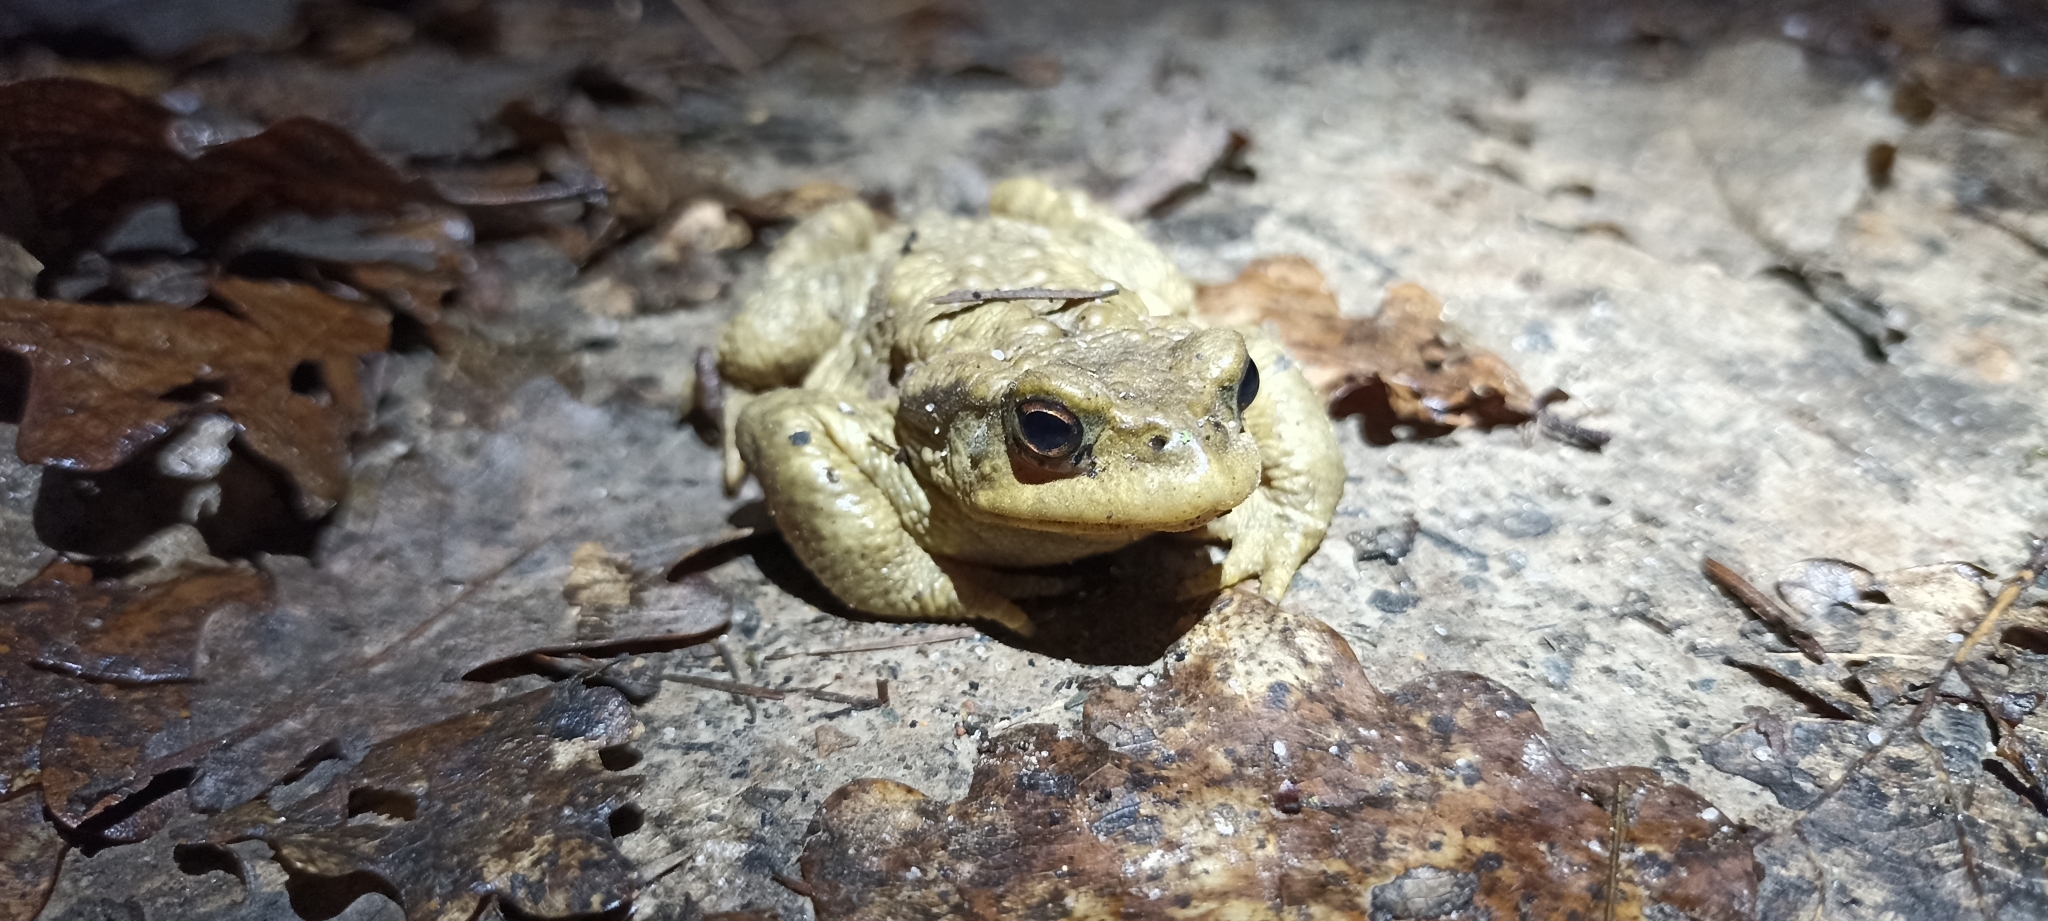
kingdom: Animalia
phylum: Chordata
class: Amphibia
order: Anura
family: Bufonidae
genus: Bufo
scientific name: Bufo spinosus
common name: Western common toad
